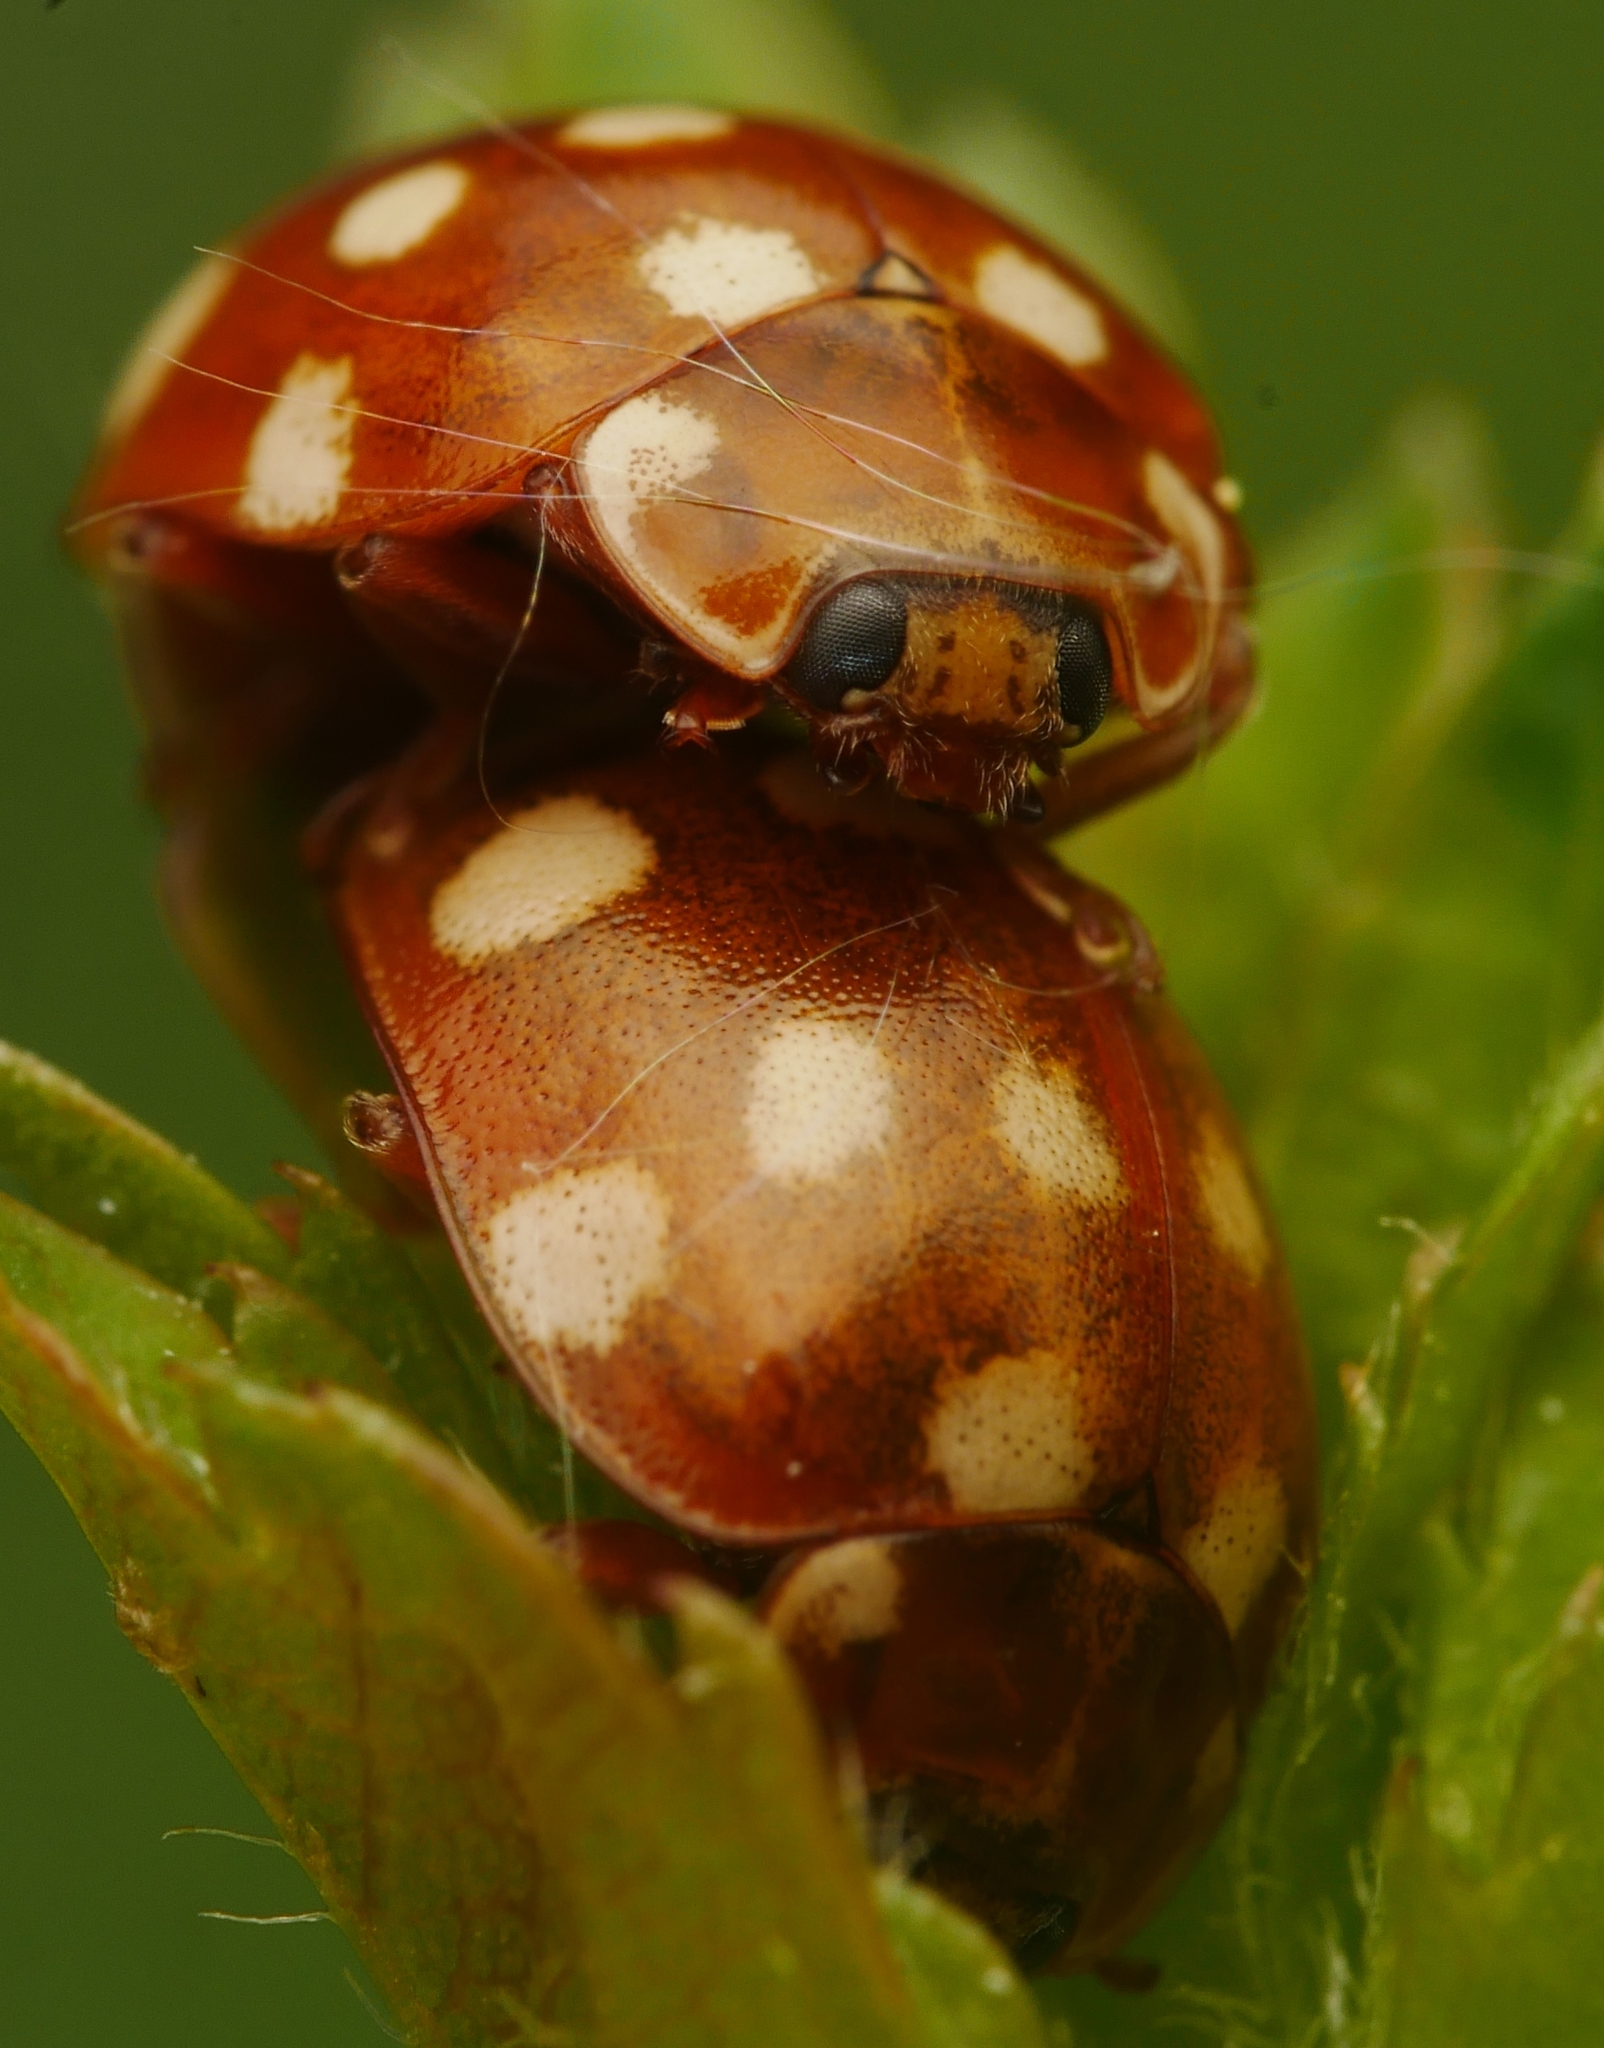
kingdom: Animalia
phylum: Arthropoda
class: Insecta
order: Coleoptera
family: Coccinellidae
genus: Calvia
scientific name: Calvia quatuordecimguttata
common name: Cream-spot ladybird
